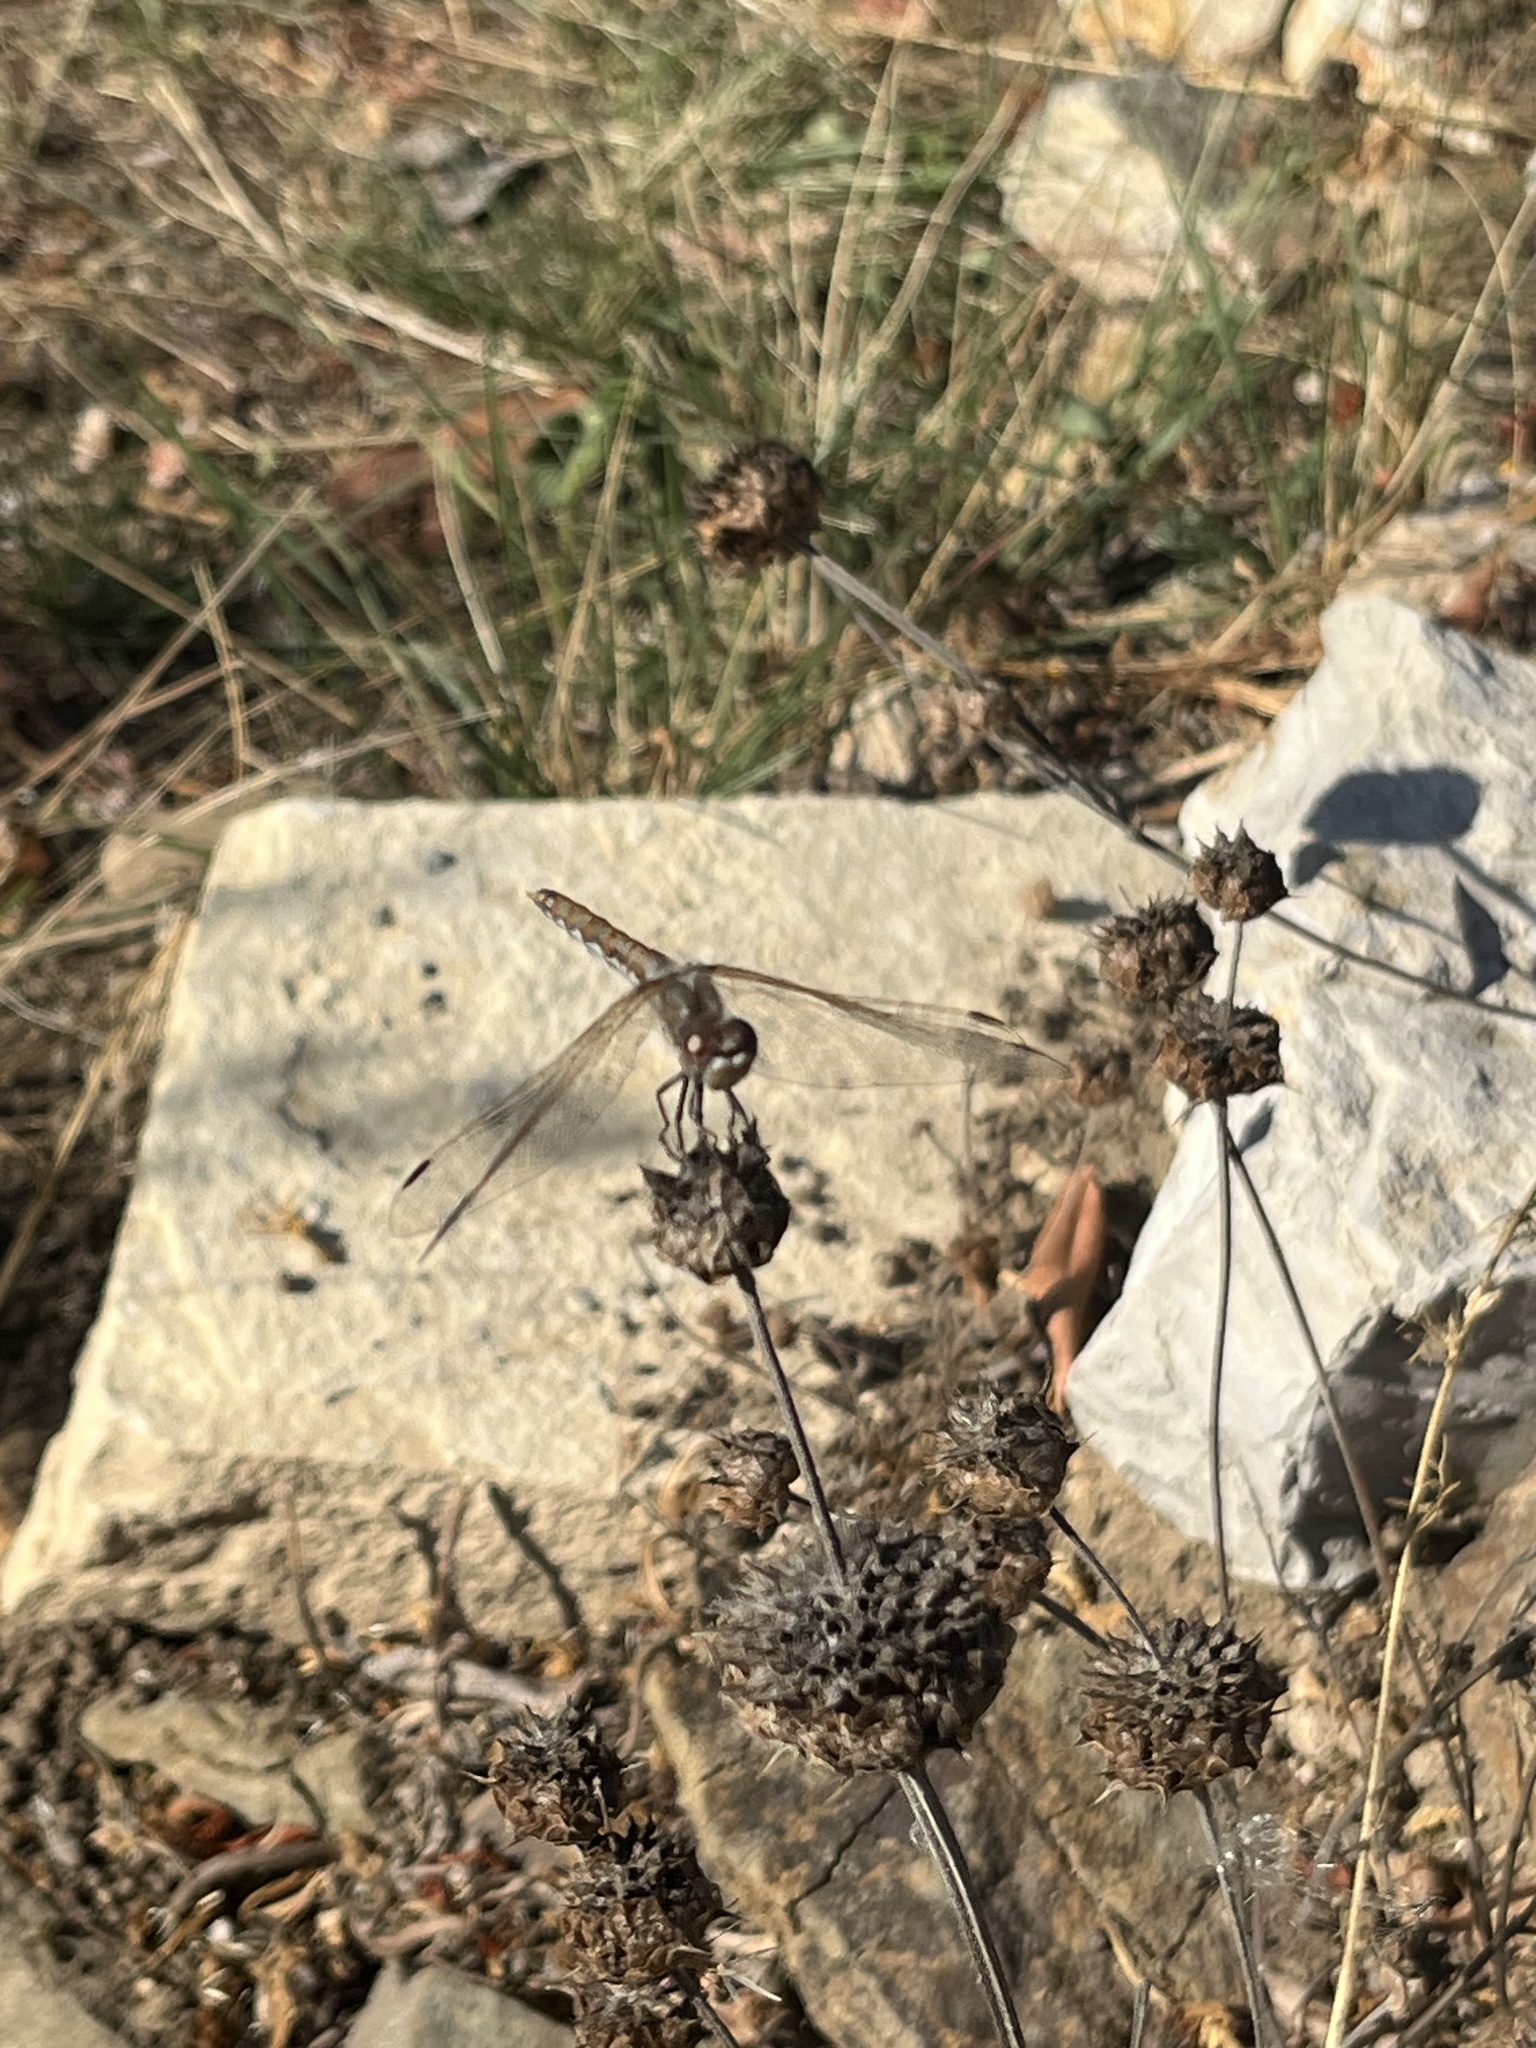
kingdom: Animalia
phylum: Arthropoda
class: Insecta
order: Odonata
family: Libellulidae
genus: Sympetrum
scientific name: Sympetrum corruptum
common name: Variegated meadowhawk
